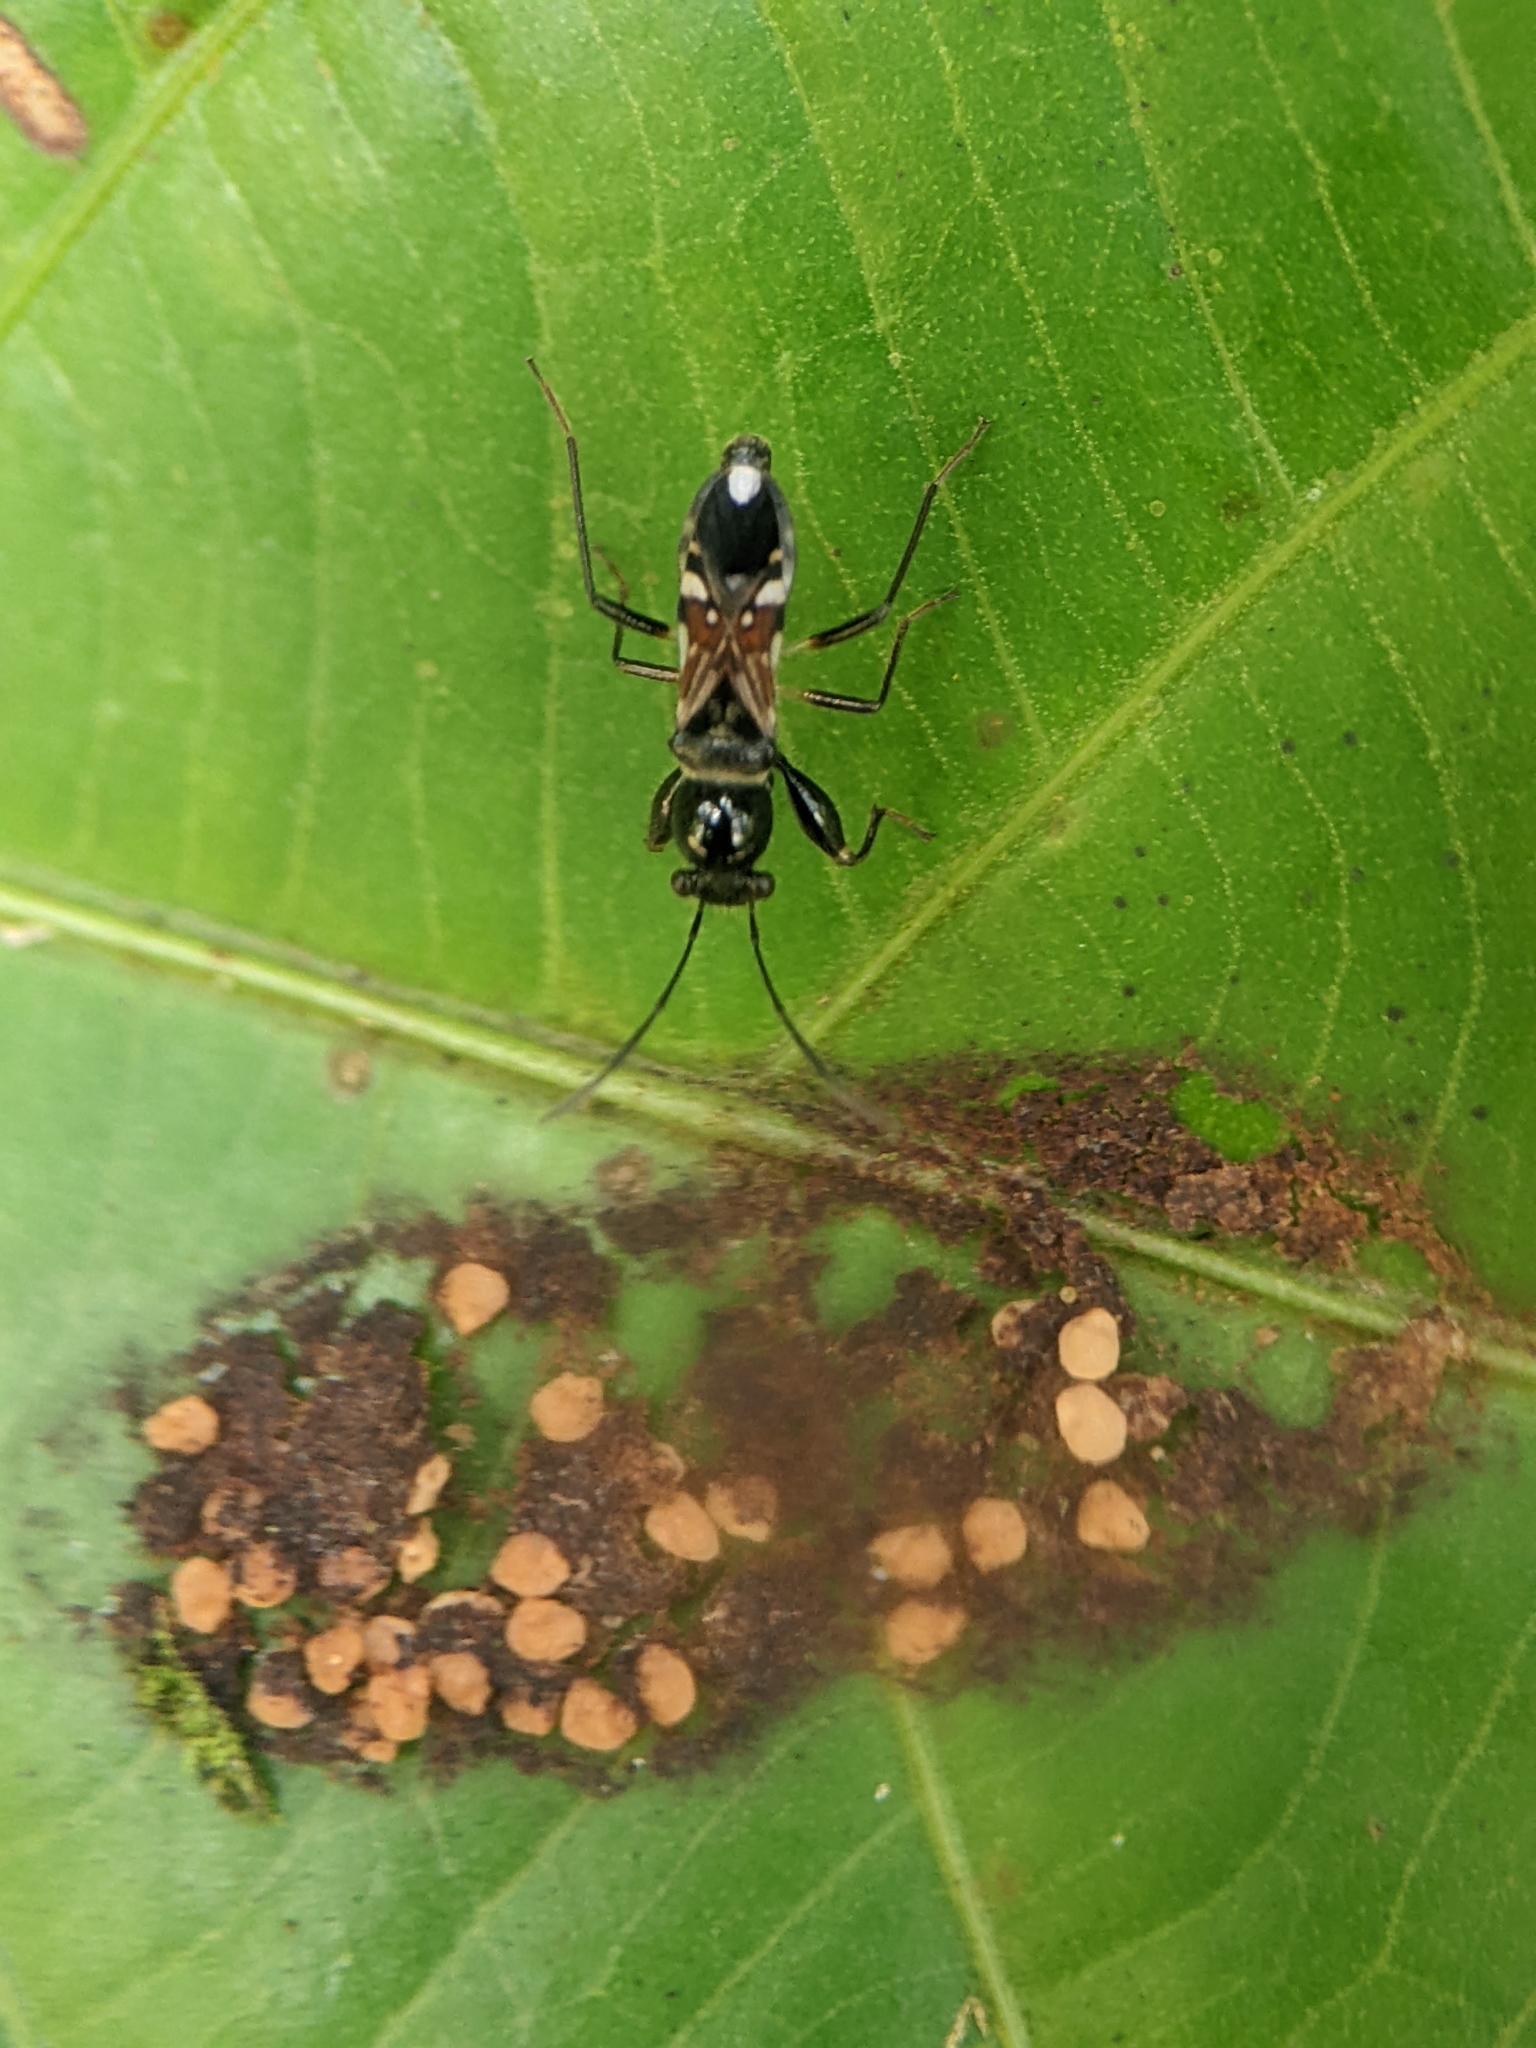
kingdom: Animalia
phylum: Arthropoda
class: Insecta
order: Hemiptera
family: Rhyparochromidae
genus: Caridops
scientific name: Caridops globicollis
